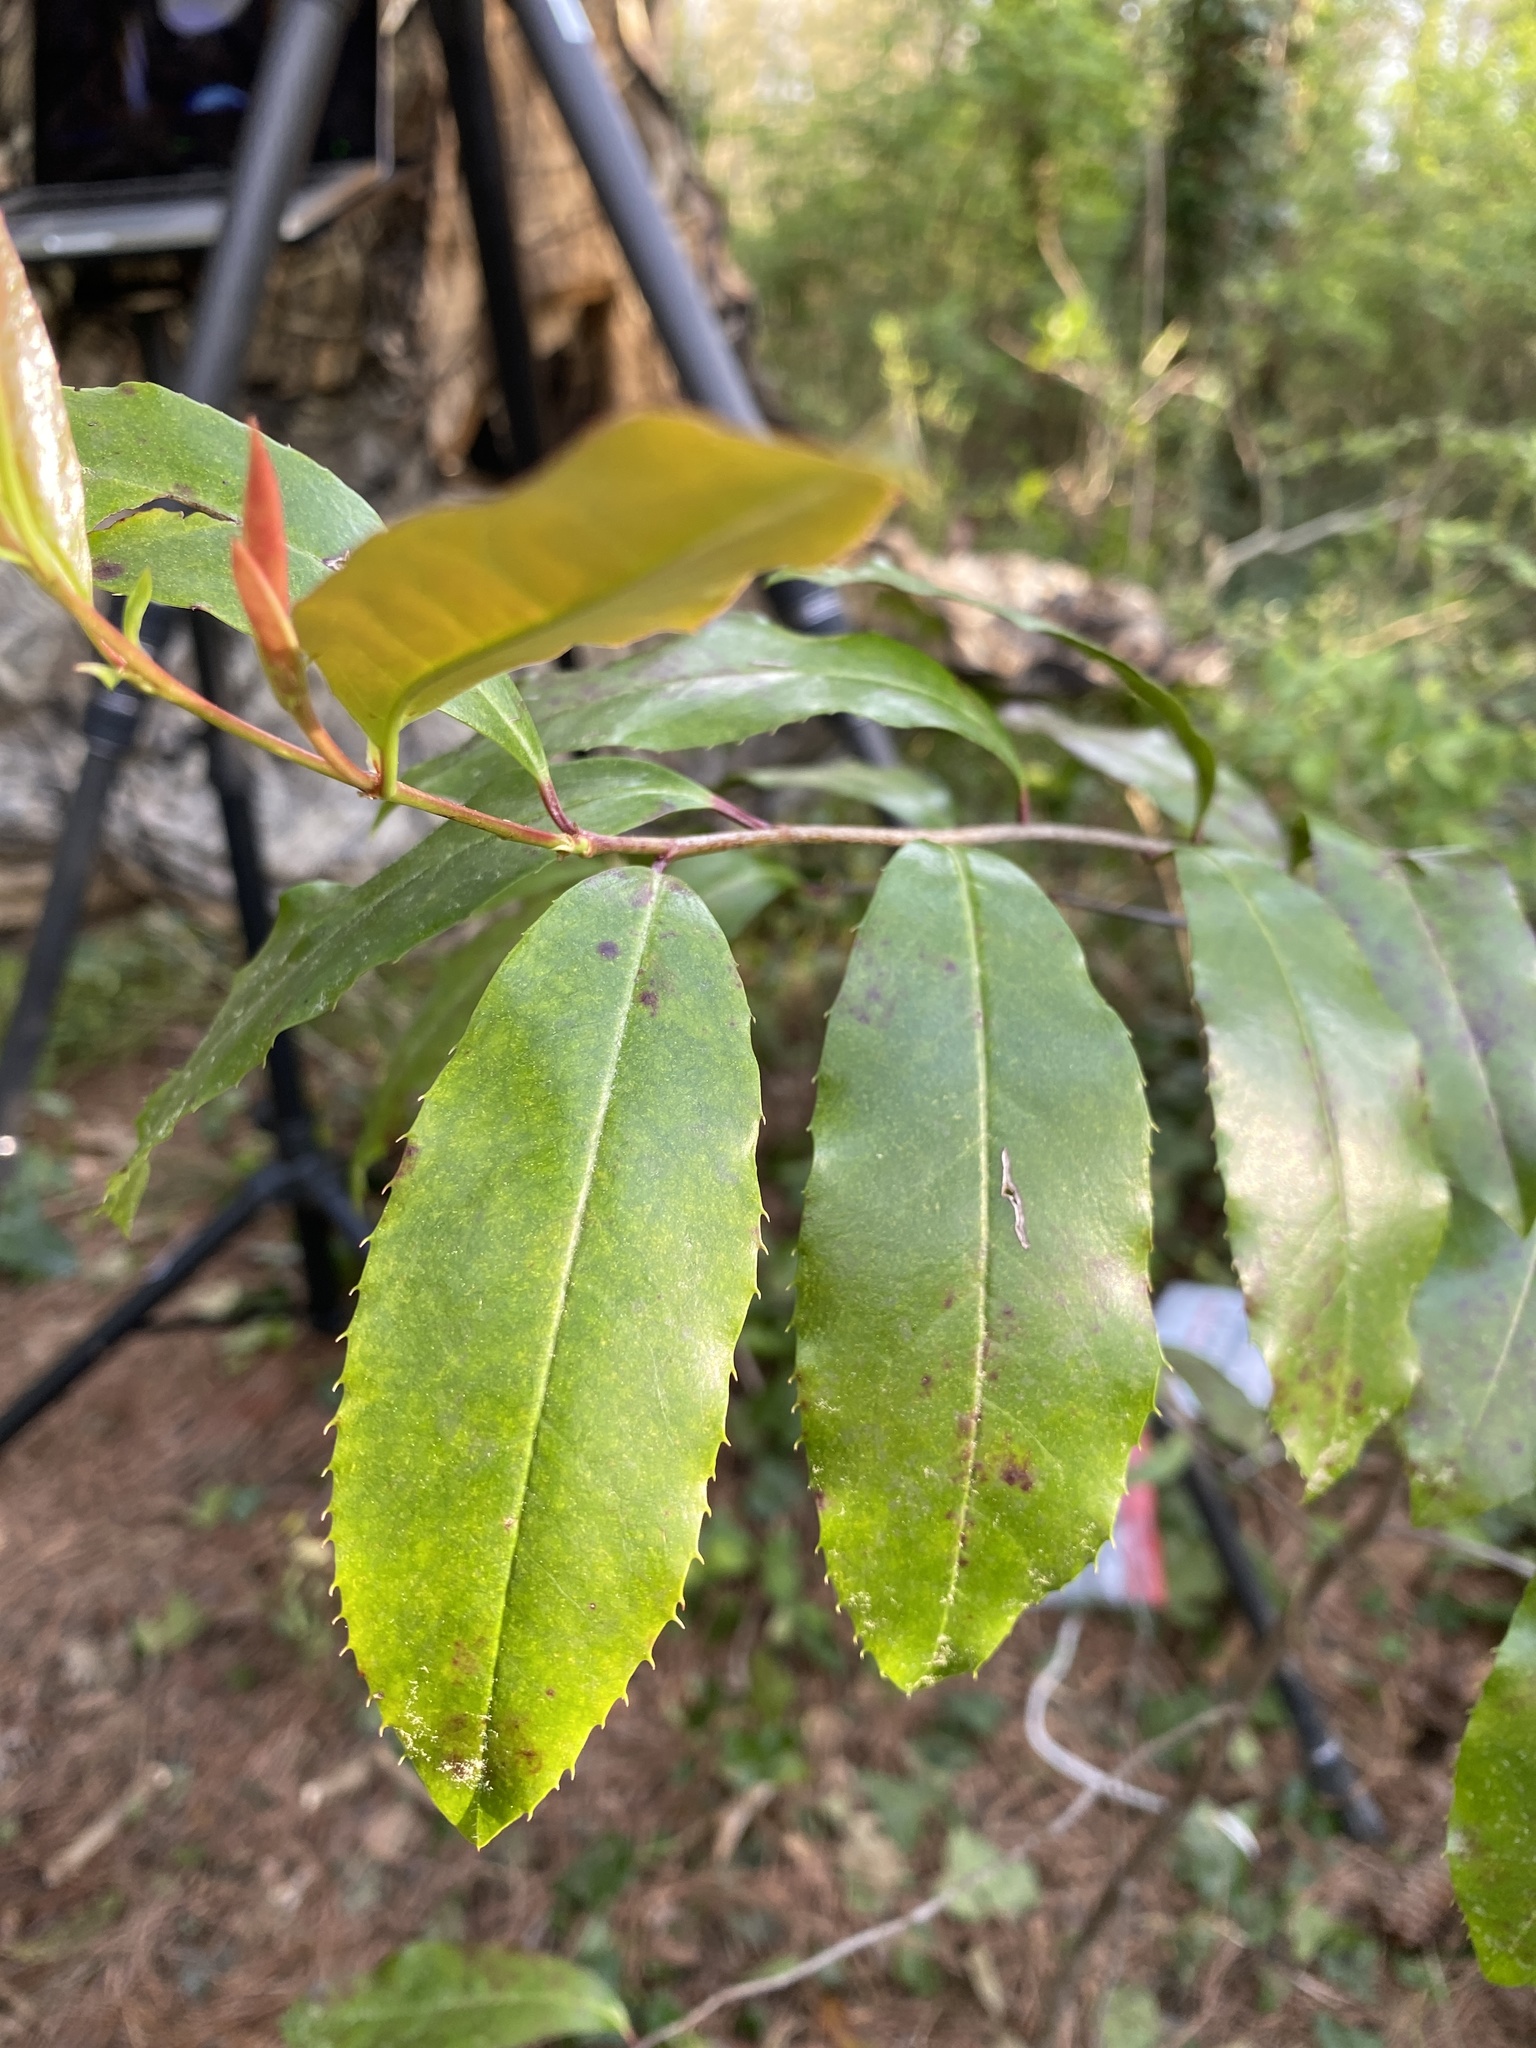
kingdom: Plantae
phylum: Tracheophyta
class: Magnoliopsida
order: Rosales
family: Rosaceae
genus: Prunus
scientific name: Prunus caroliniana
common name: Carolina laurel cherry
